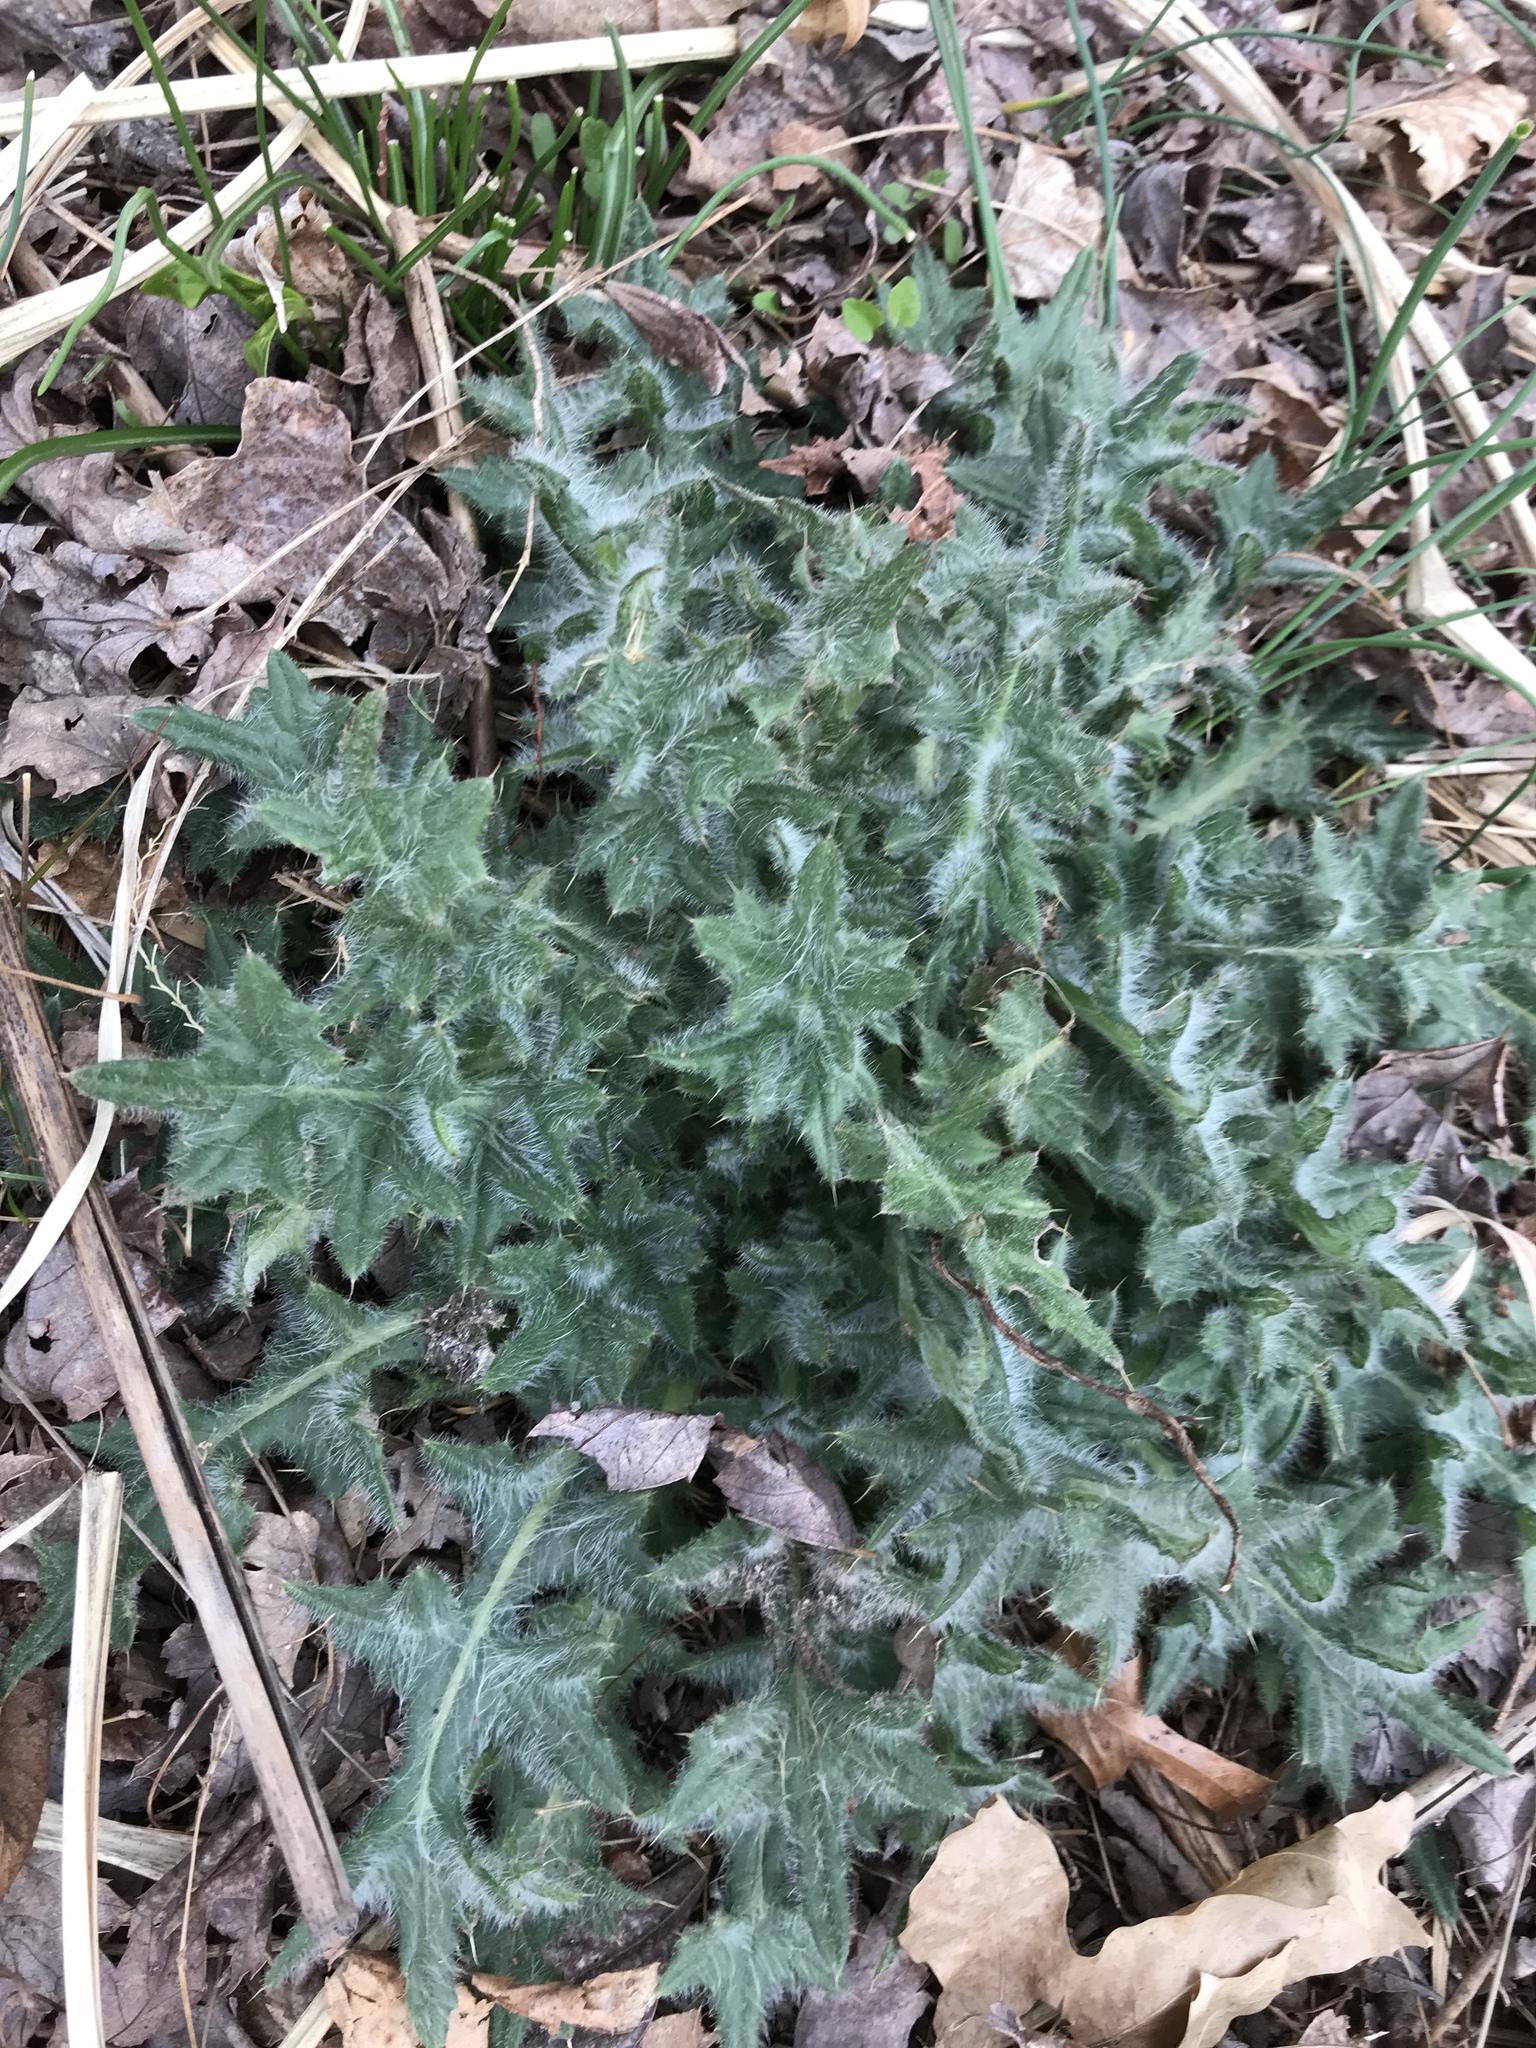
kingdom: Plantae
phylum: Tracheophyta
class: Magnoliopsida
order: Asterales
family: Asteraceae
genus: Cirsium
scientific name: Cirsium vulgare
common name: Bull thistle
